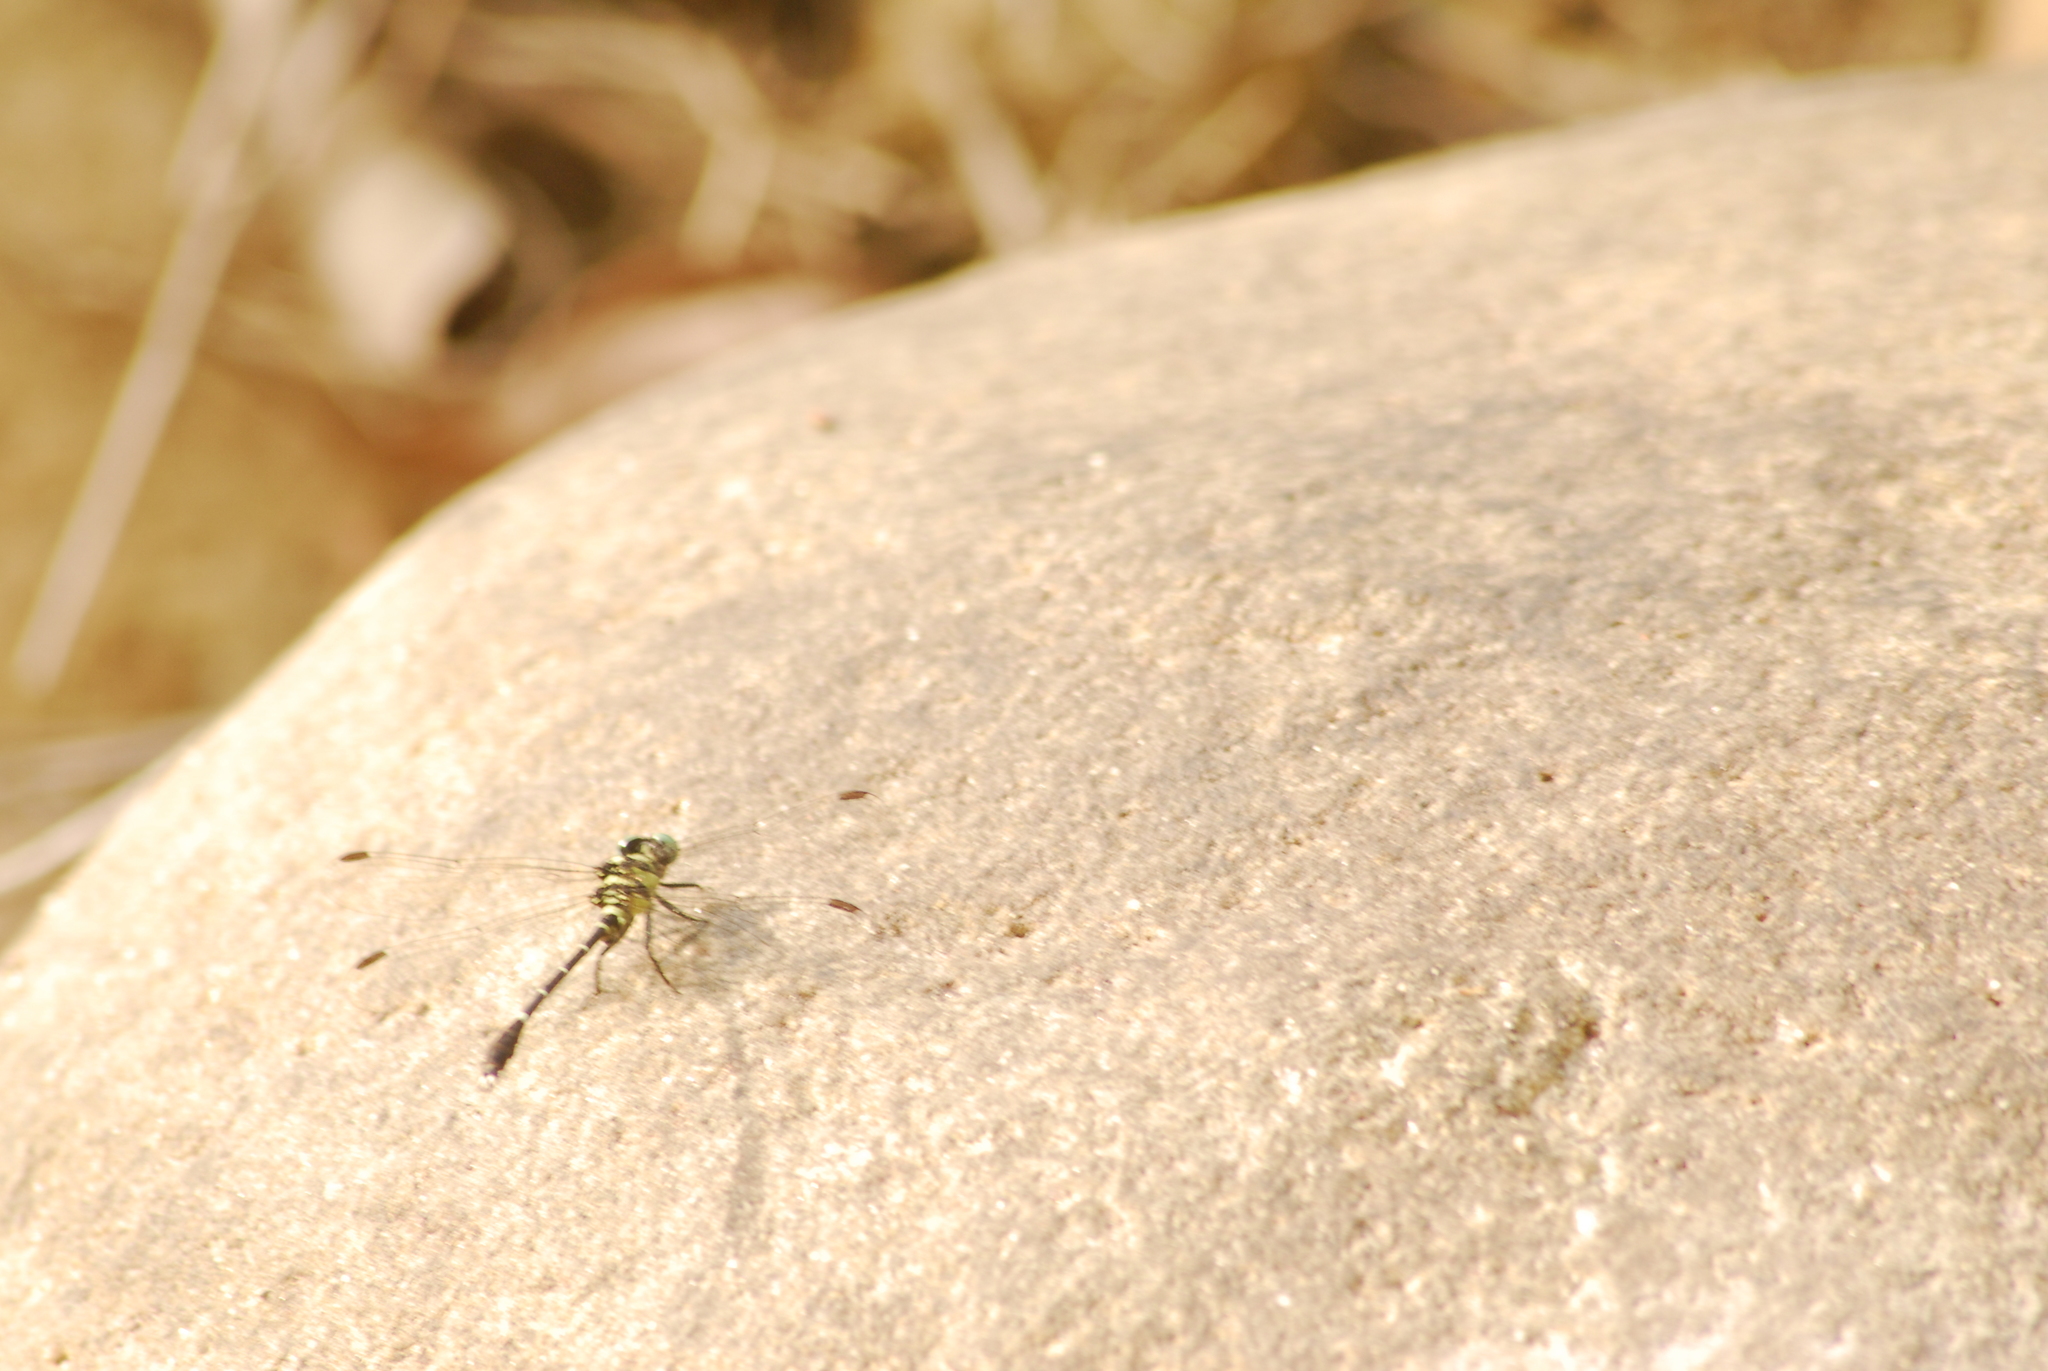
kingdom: Animalia
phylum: Arthropoda
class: Insecta
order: Odonata
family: Gomphidae
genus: Microgomphus
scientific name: Microgomphus torquatus
